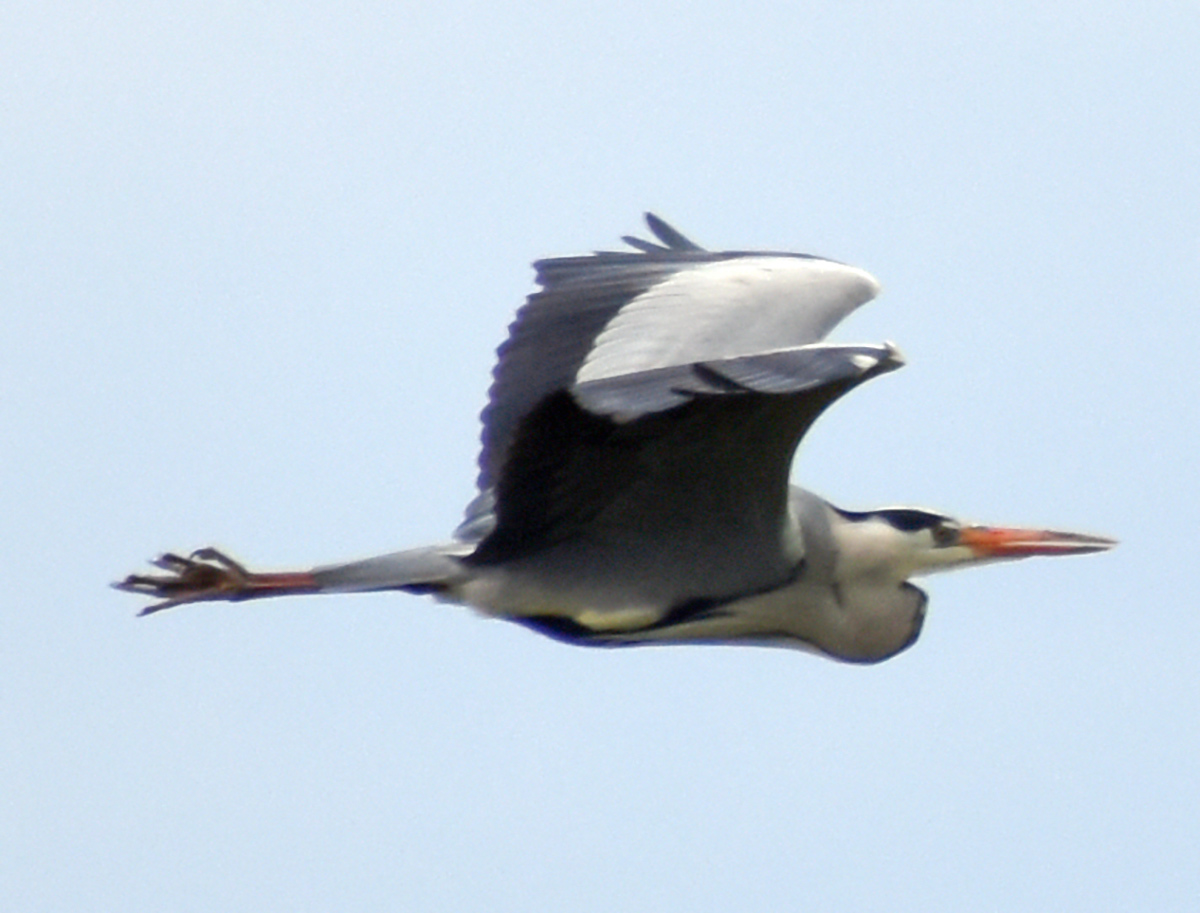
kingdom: Animalia
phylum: Chordata
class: Aves
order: Pelecaniformes
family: Ardeidae
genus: Ardea
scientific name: Ardea cinerea
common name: Grey heron
